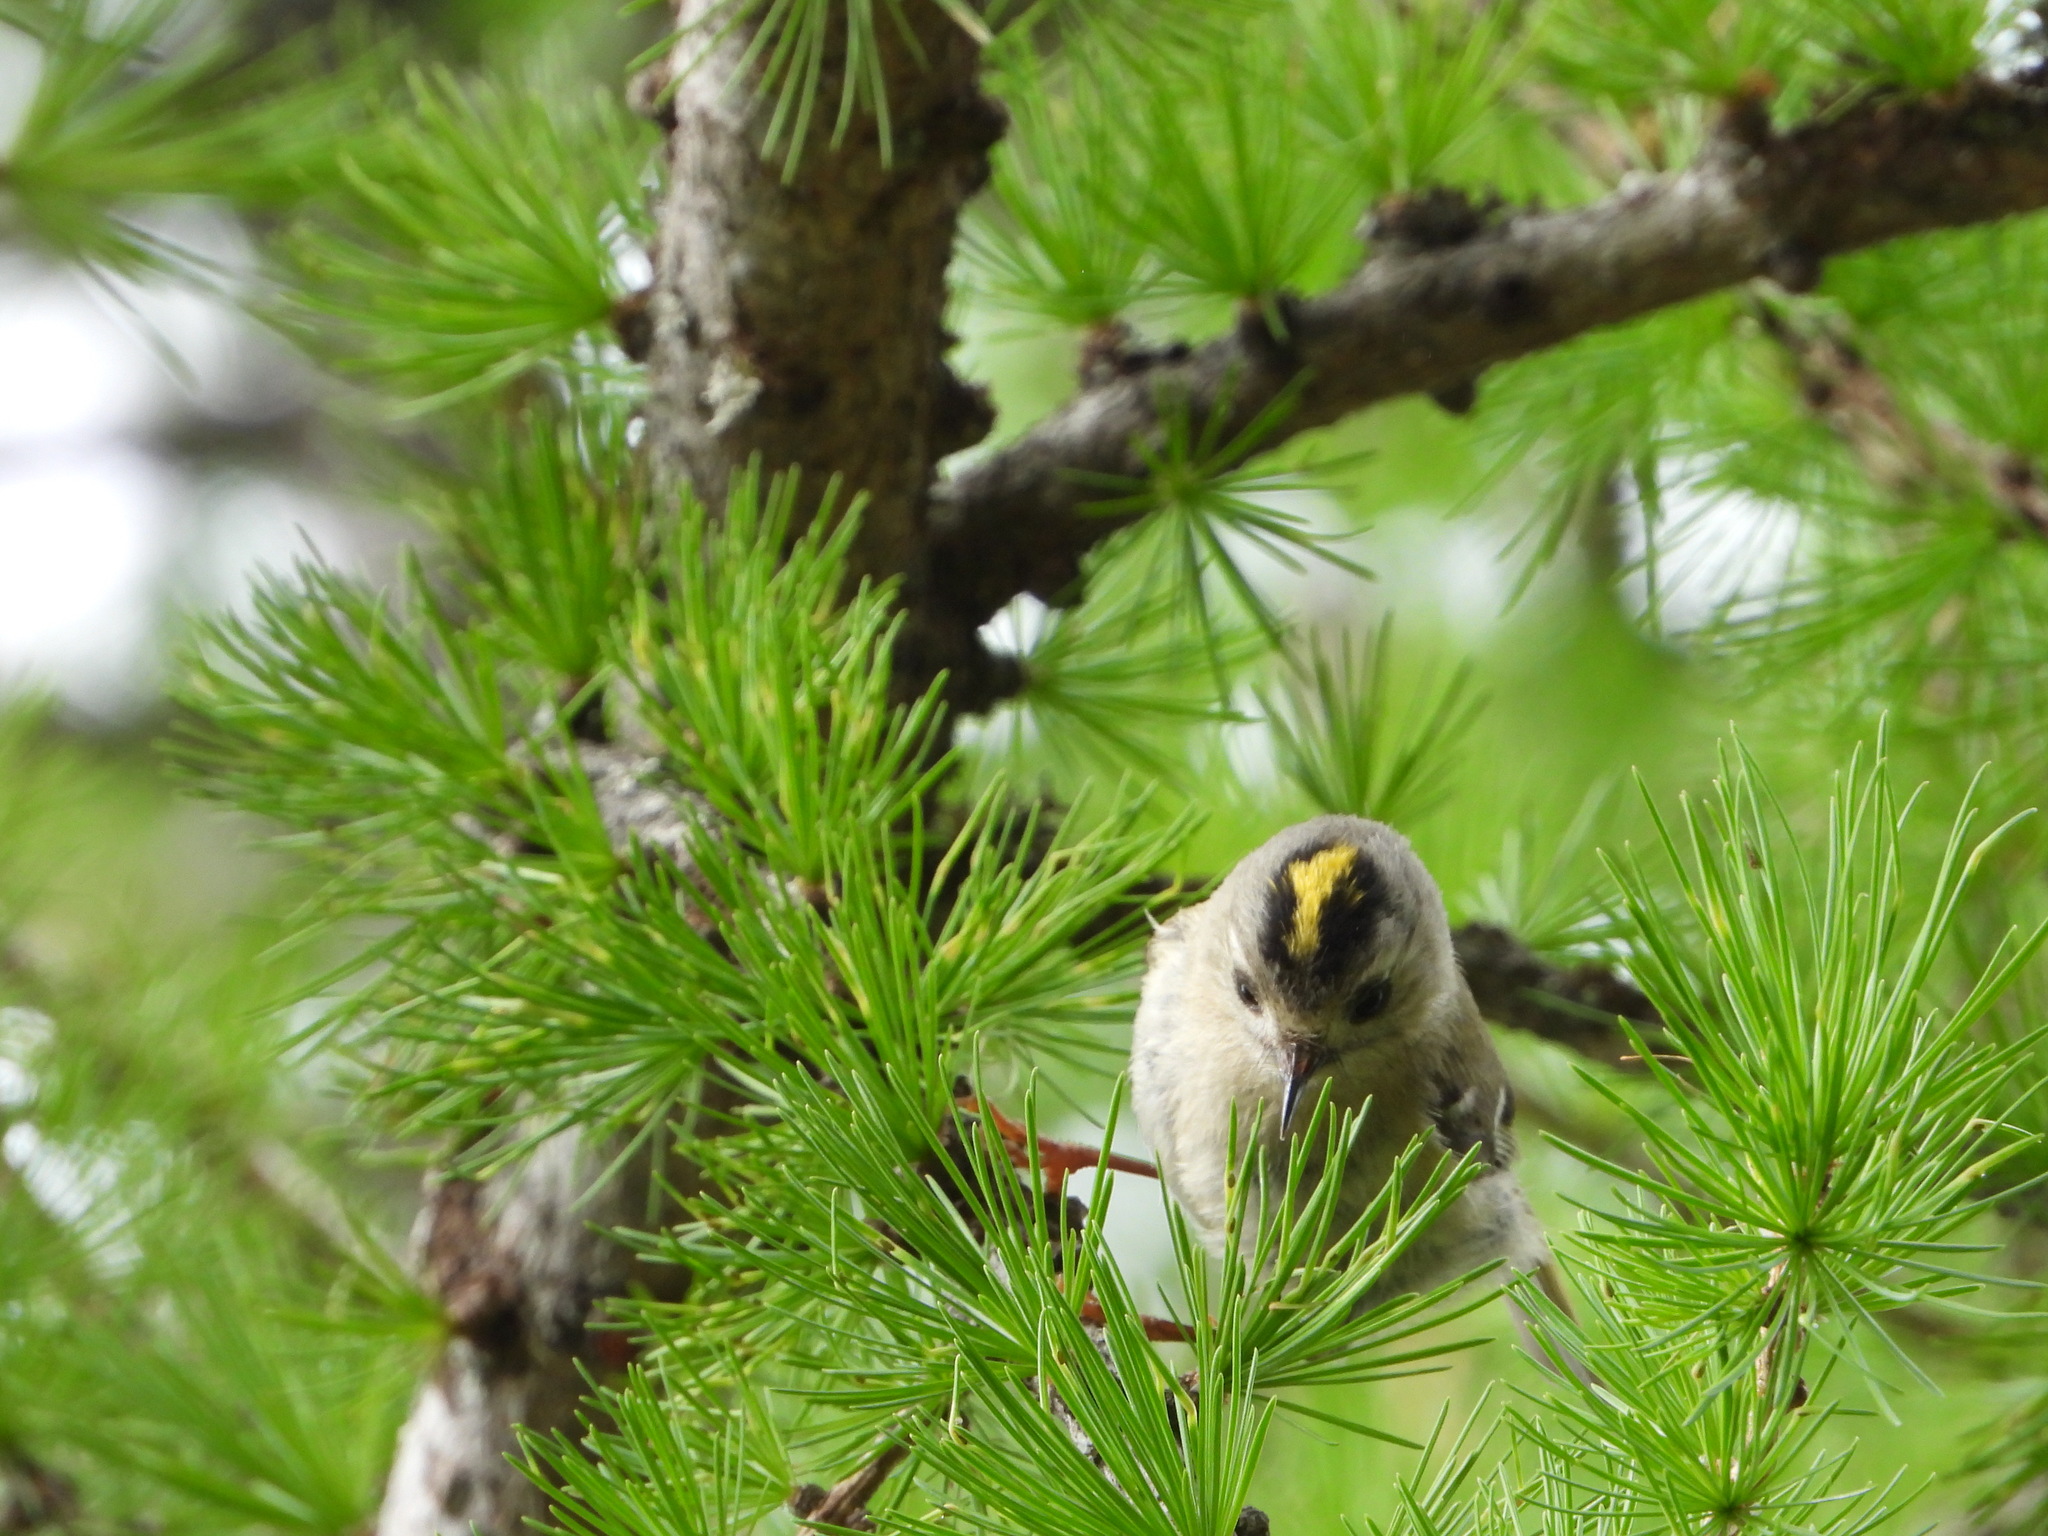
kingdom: Animalia
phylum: Chordata
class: Aves
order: Passeriformes
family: Regulidae
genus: Regulus
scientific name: Regulus regulus
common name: Goldcrest
